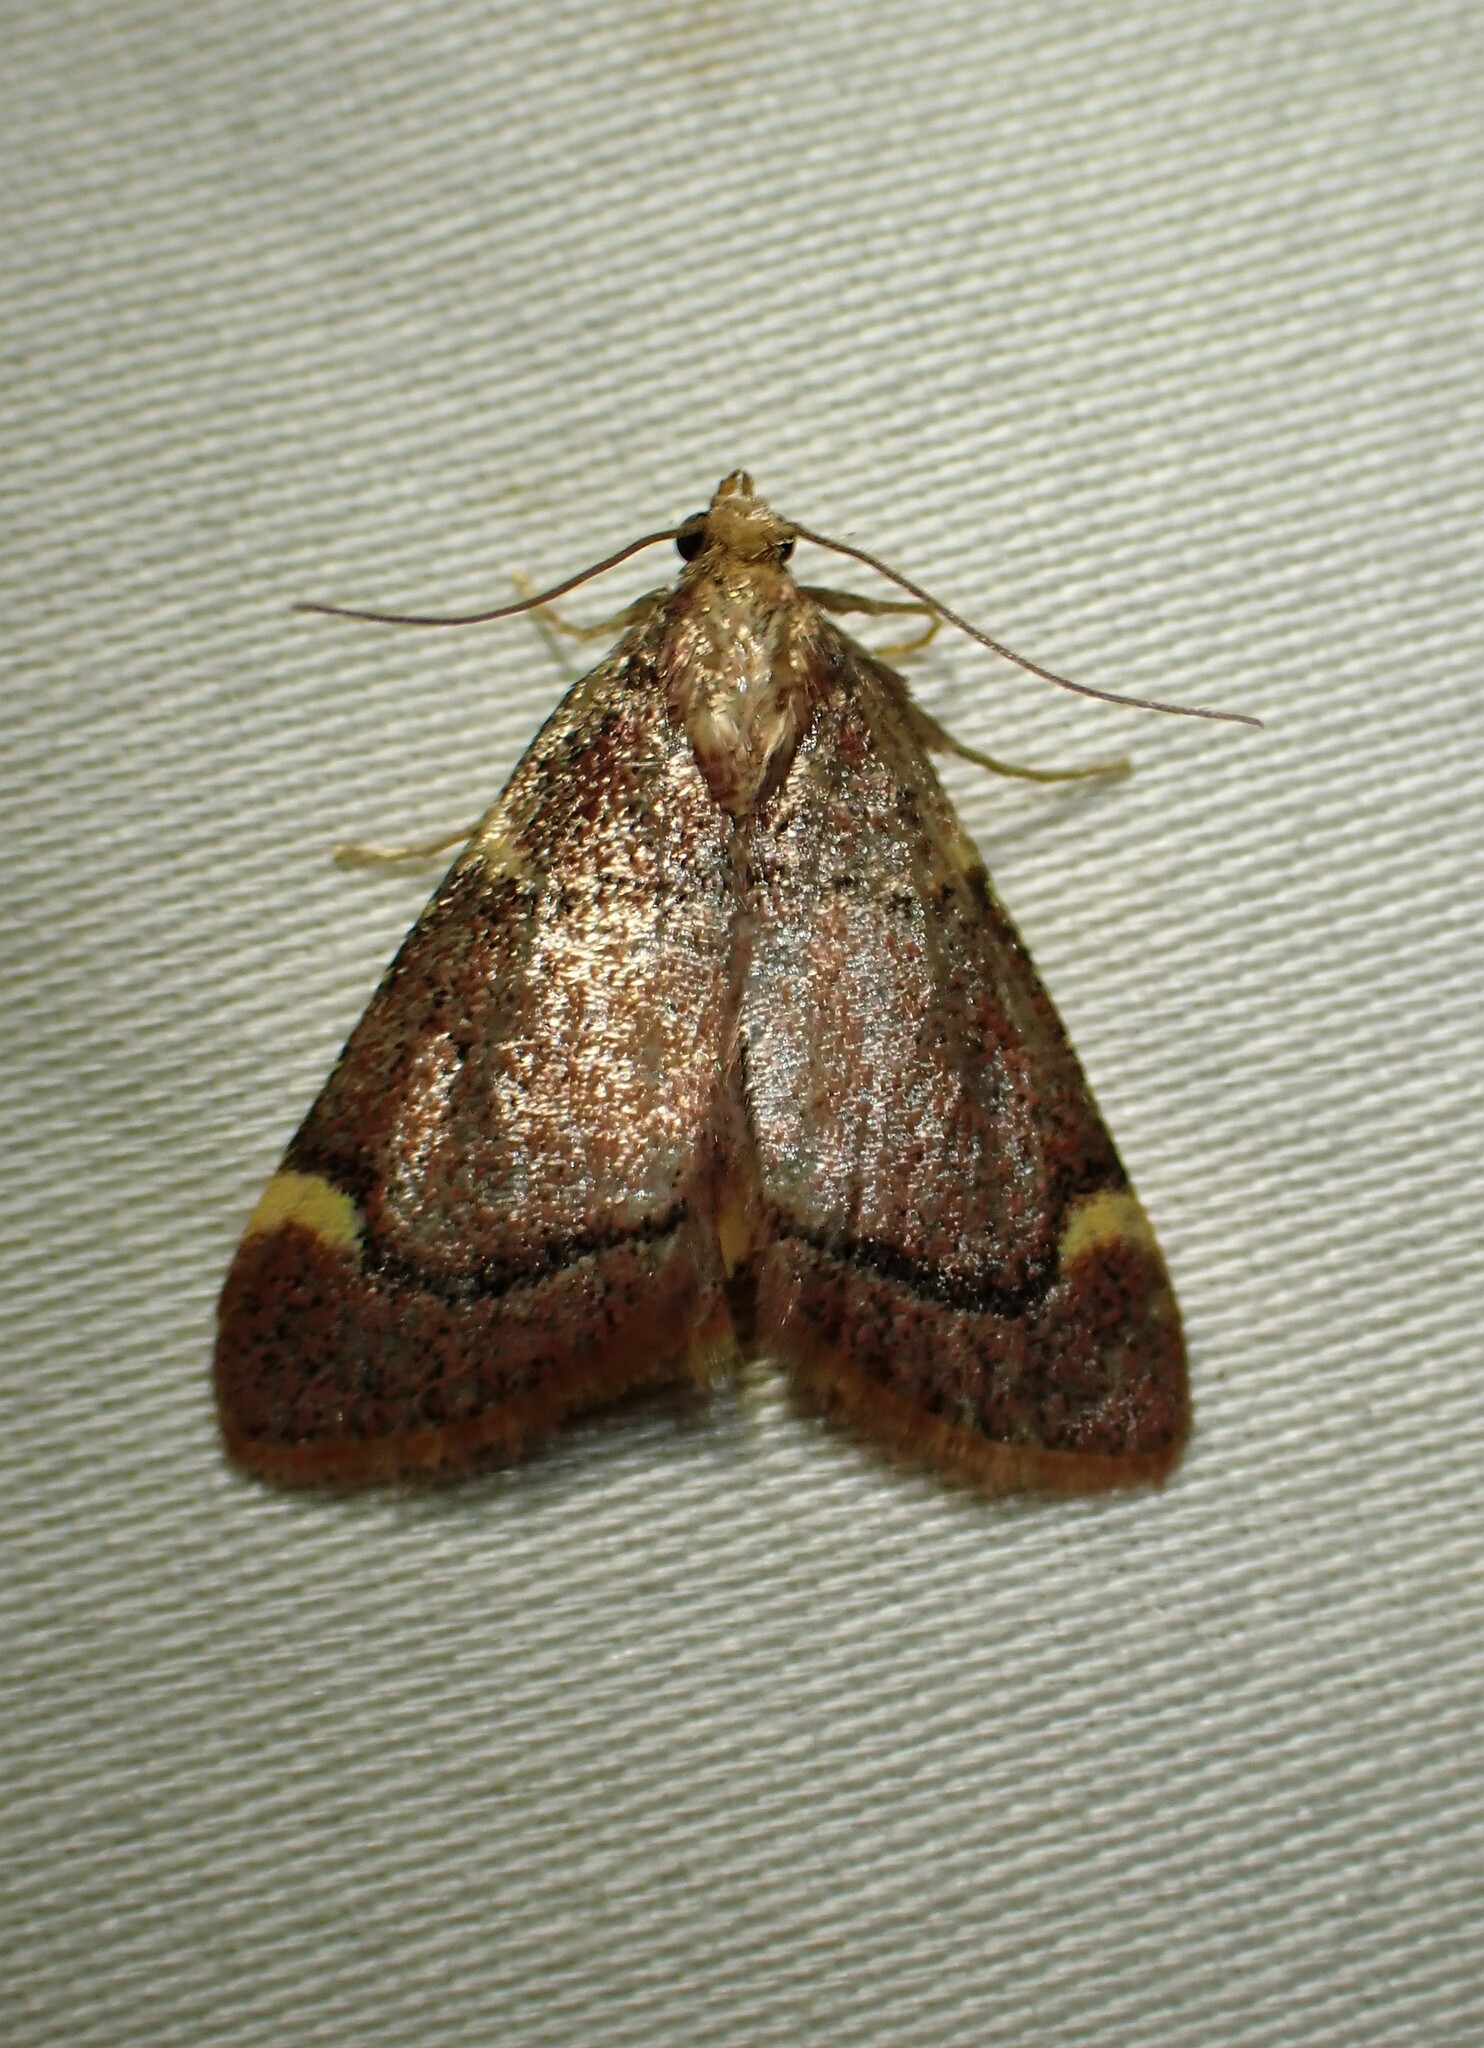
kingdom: Animalia
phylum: Arthropoda
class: Insecta
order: Lepidoptera
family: Pyralidae
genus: Hypsopygia
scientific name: Hypsopygia thymetusalis
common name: Spruce needleworm moth
